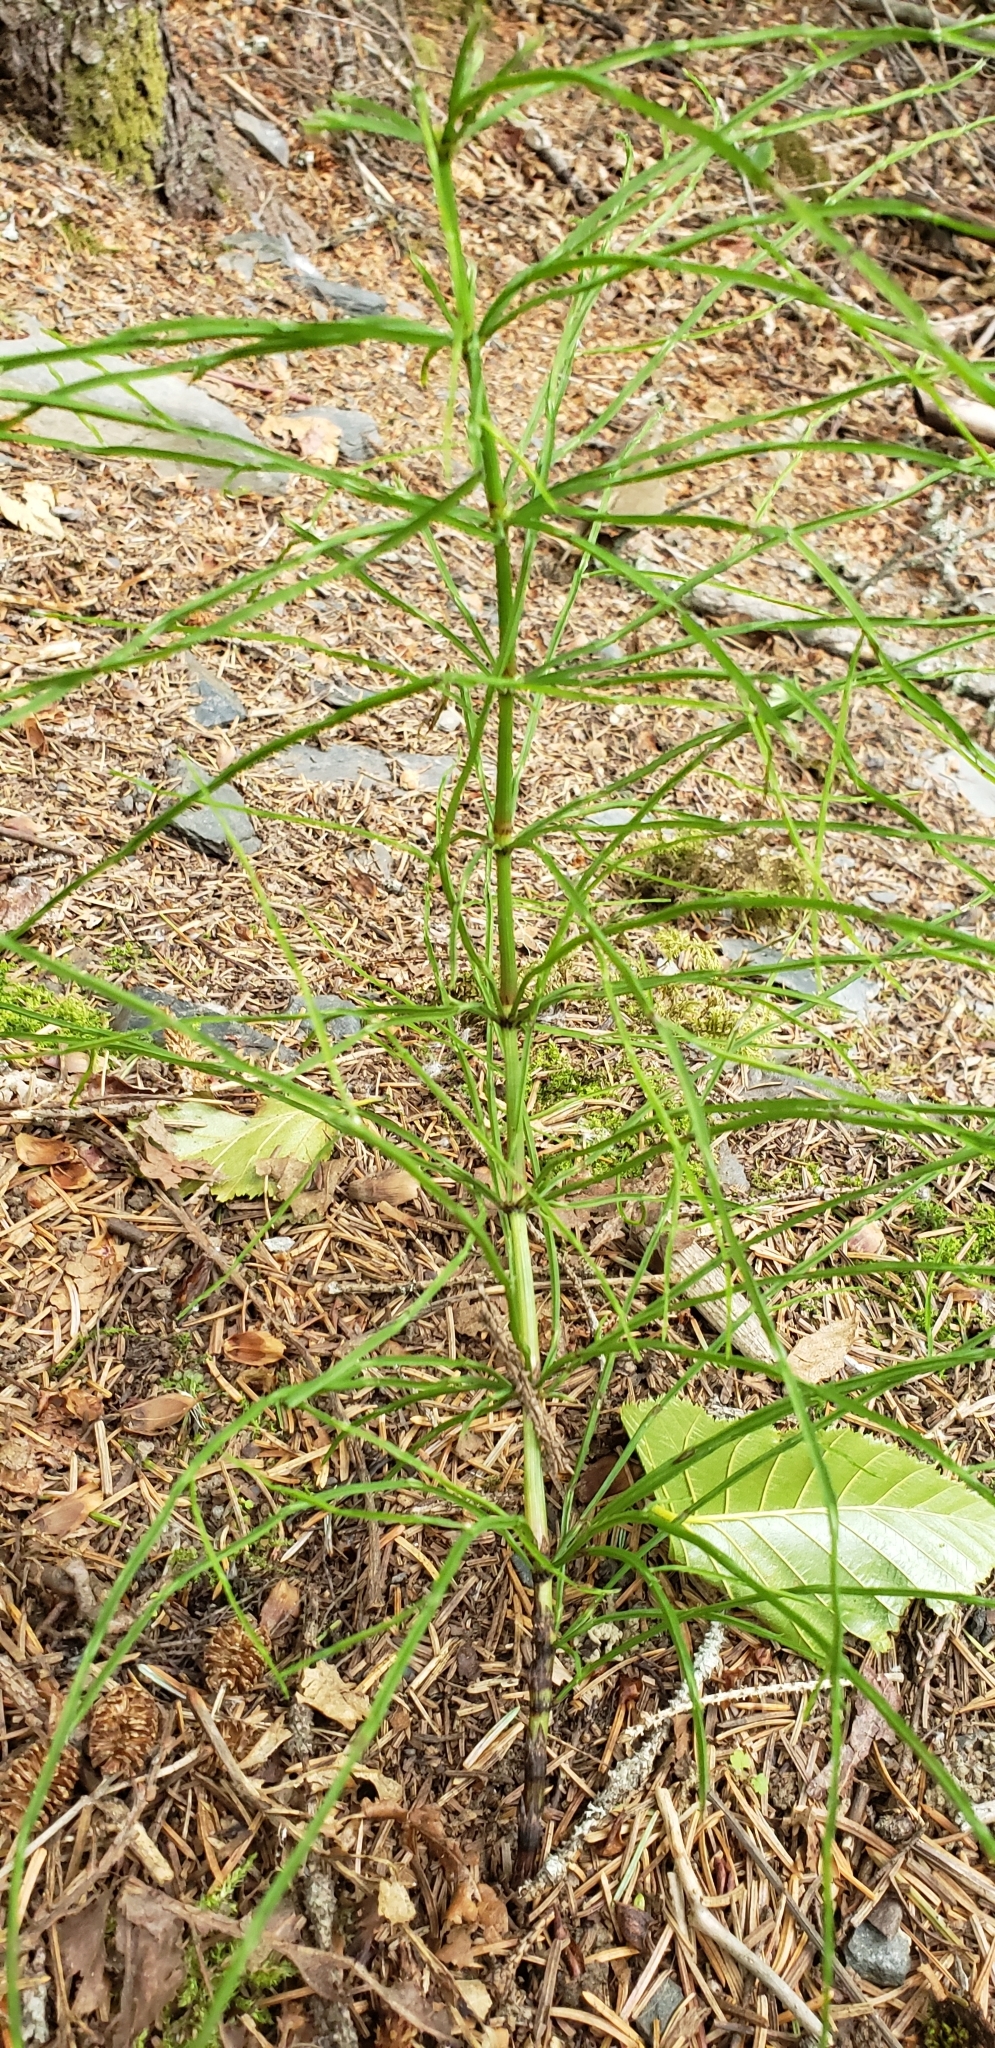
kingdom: Plantae
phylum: Tracheophyta
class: Polypodiopsida
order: Equisetales
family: Equisetaceae
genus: Equisetum
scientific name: Equisetum arvense
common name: Field horsetail
